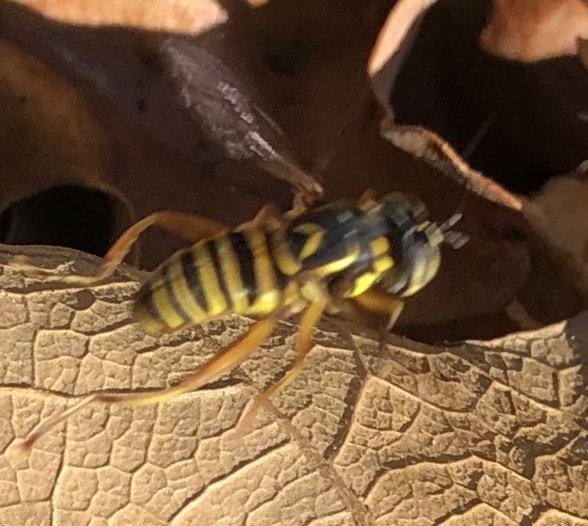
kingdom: Animalia
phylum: Arthropoda
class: Insecta
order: Diptera
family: Syrphidae
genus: Spilomyia
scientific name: Spilomyia longicornis
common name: Eastern hornet fly
